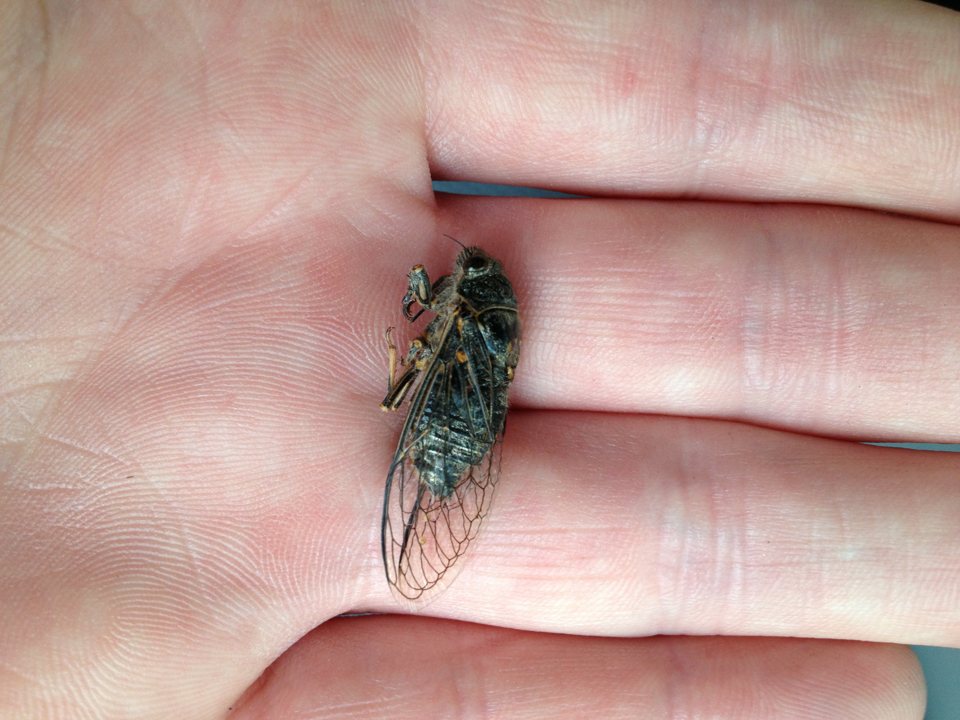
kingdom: Animalia
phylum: Arthropoda
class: Insecta
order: Hemiptera
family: Cicadidae
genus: Tibicinoides
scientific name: Tibicinoides
